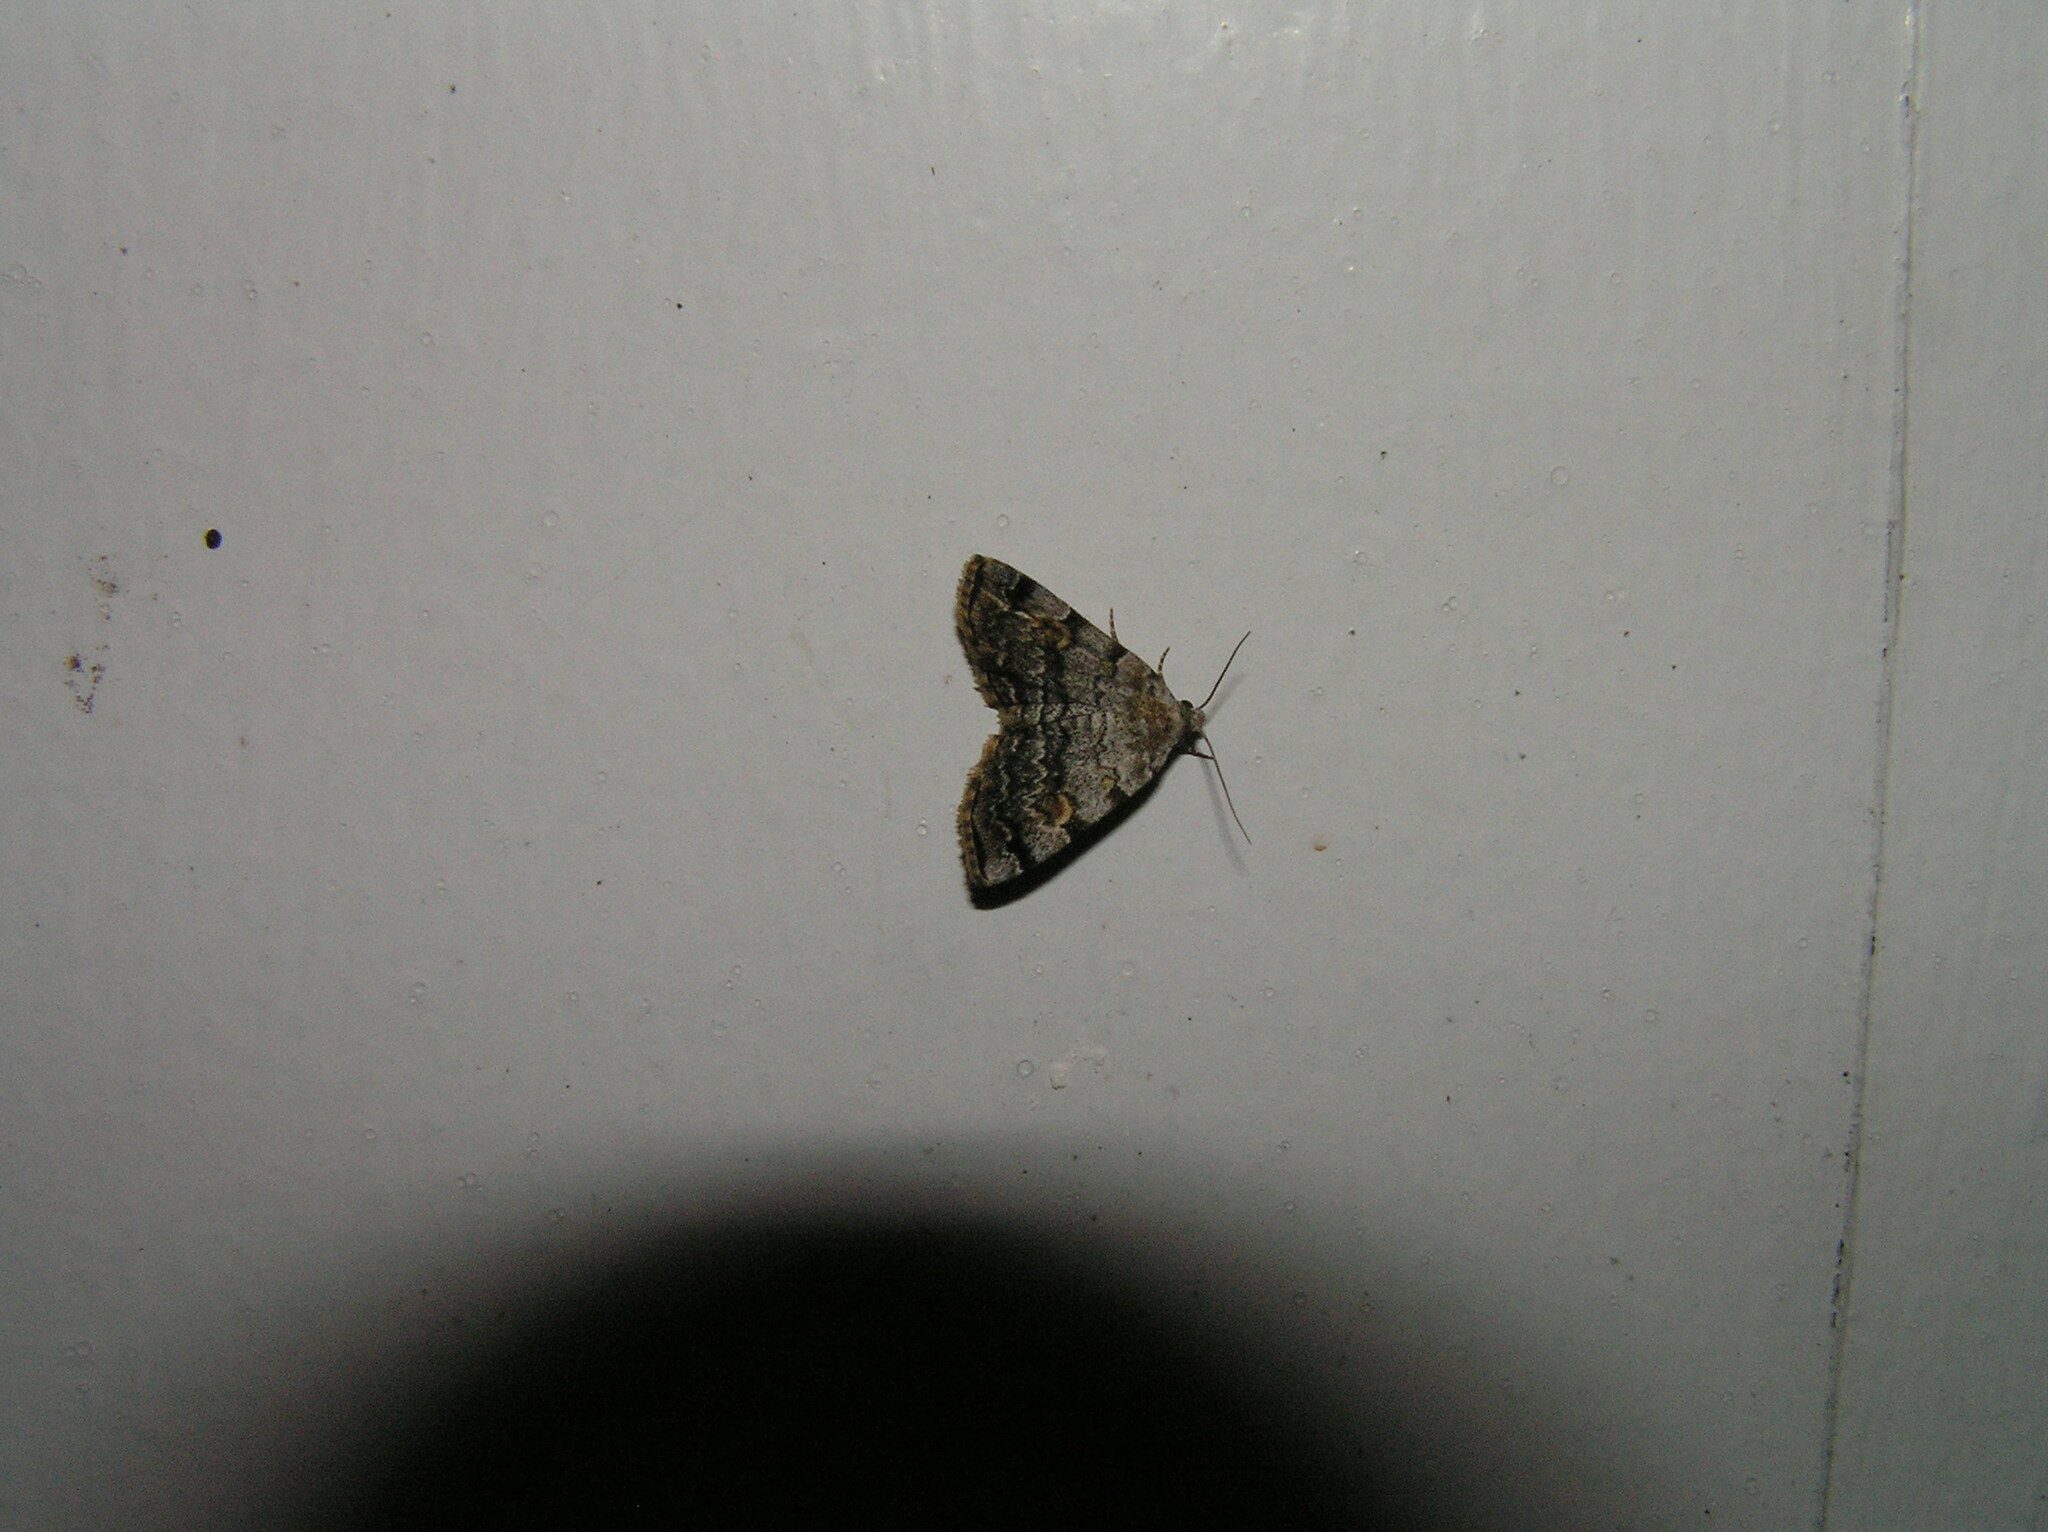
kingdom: Animalia
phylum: Arthropoda
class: Insecta
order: Lepidoptera
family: Erebidae
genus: Idia
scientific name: Idia americalis
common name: American idia moth
